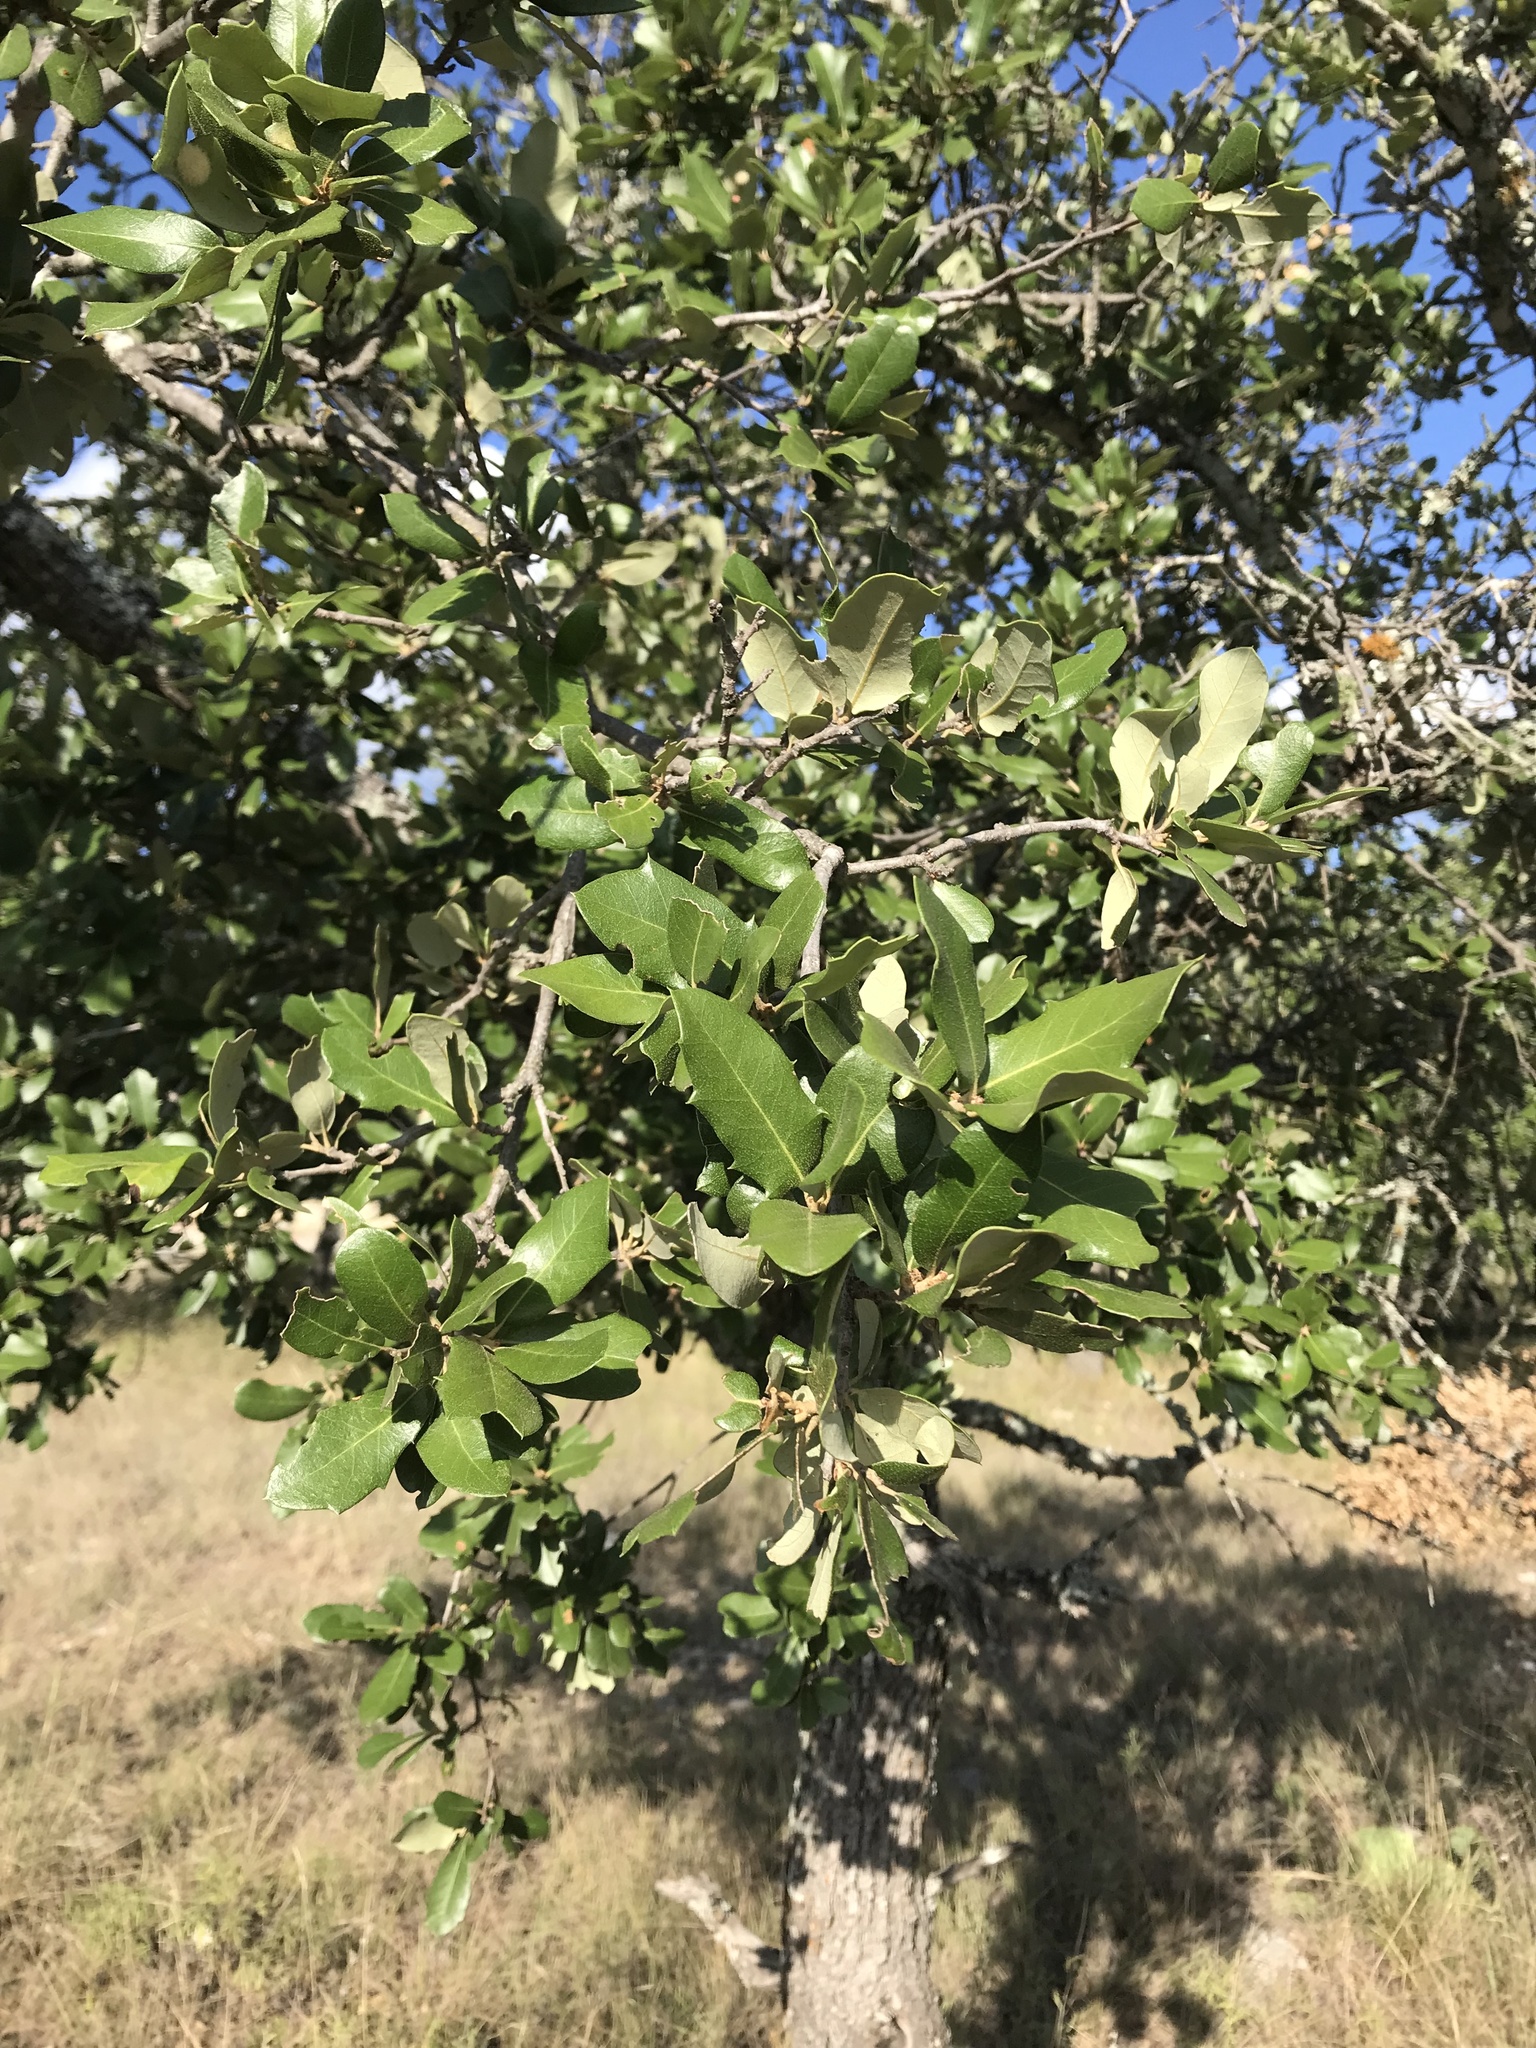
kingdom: Plantae
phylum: Tracheophyta
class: Magnoliopsida
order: Fagales
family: Fagaceae
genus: Quercus
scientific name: Quercus fusiformis
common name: Texas live oak
